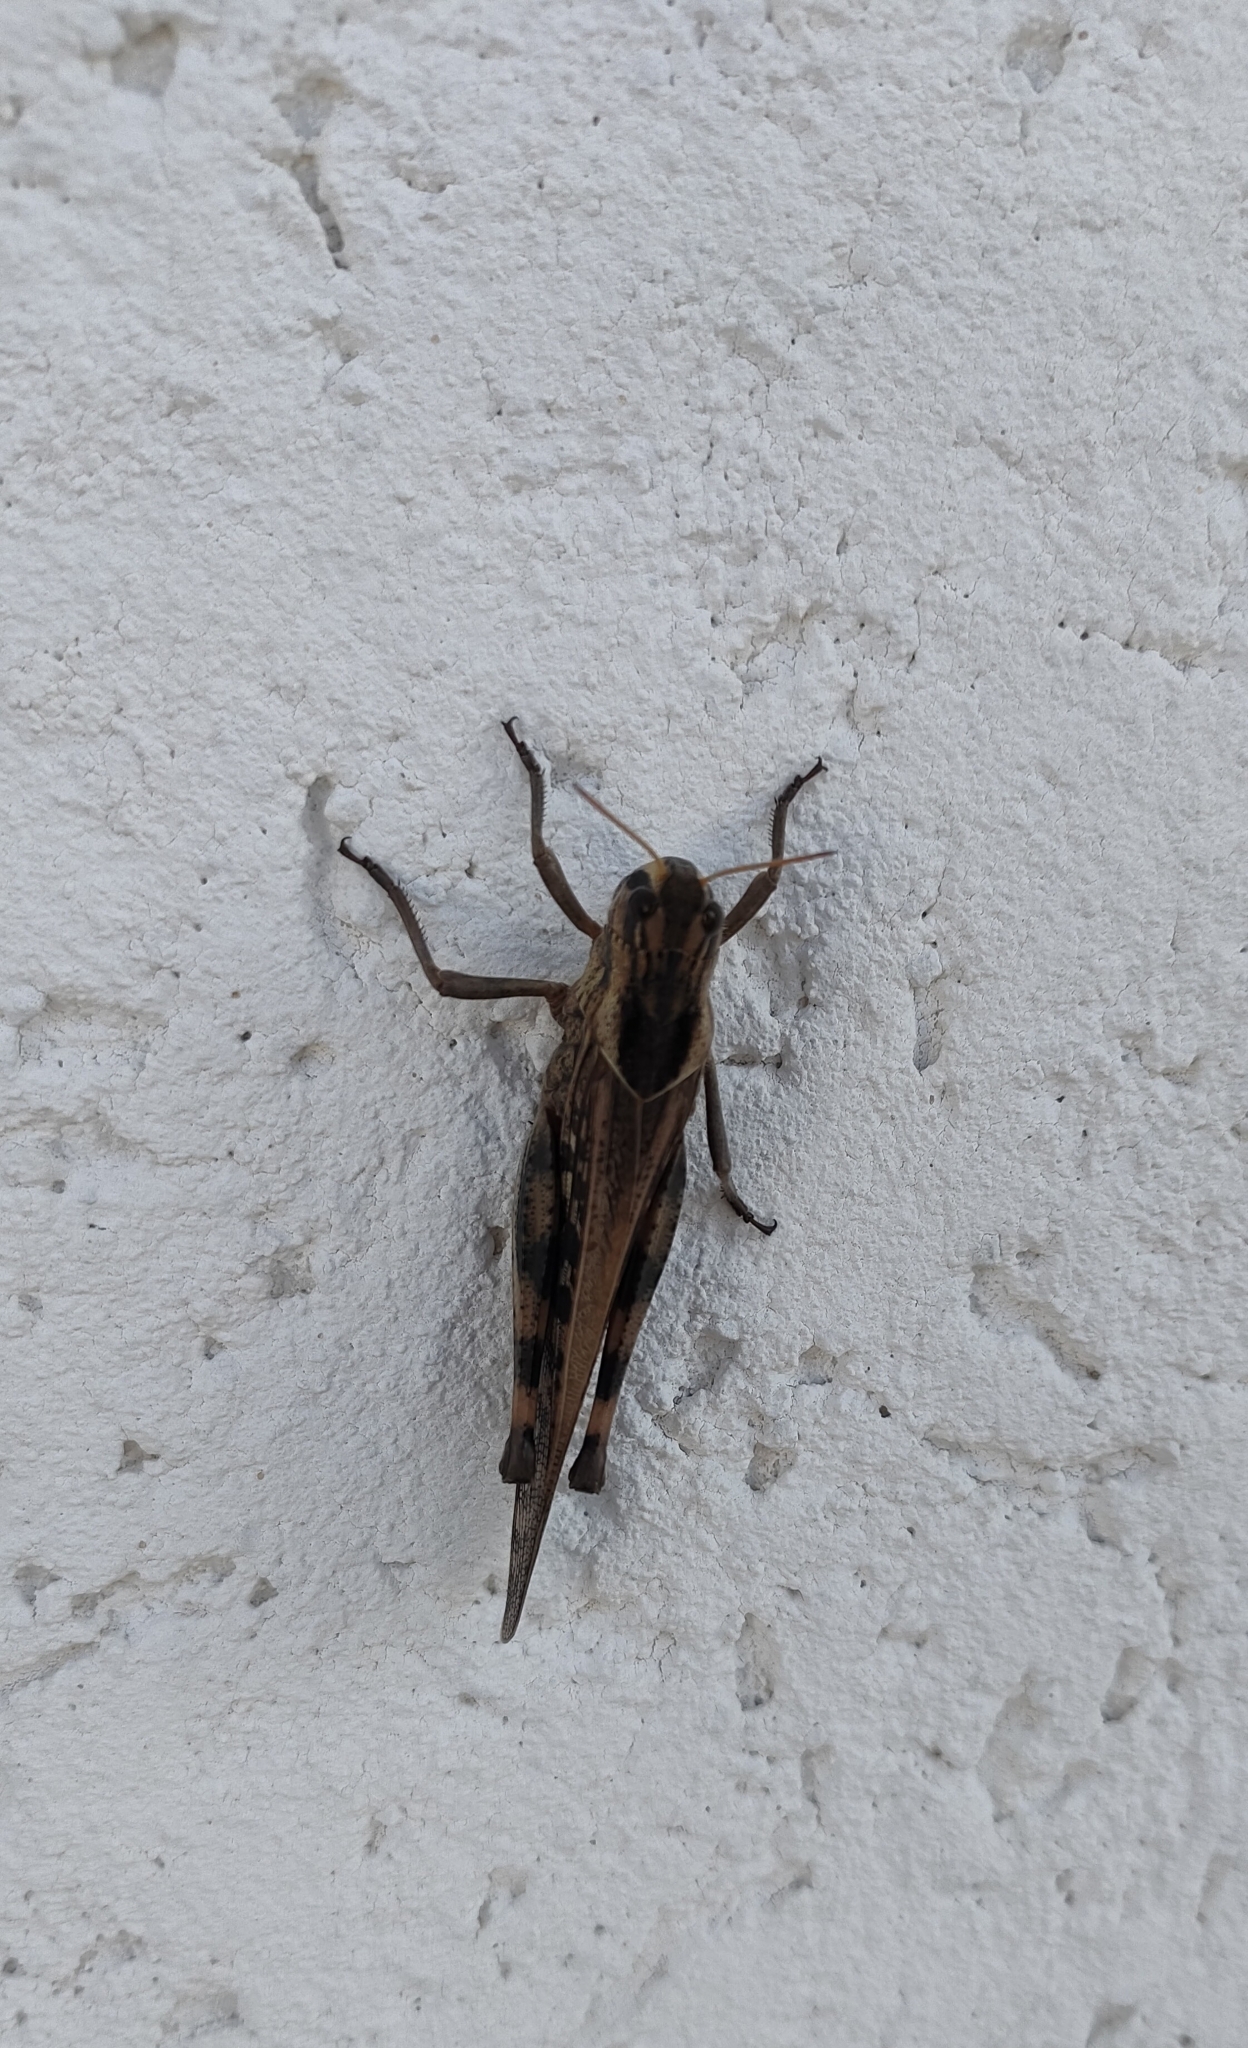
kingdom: Animalia
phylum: Arthropoda
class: Insecta
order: Orthoptera
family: Acrididae
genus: Locusta
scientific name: Locusta migratoria
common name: Migratory locust
